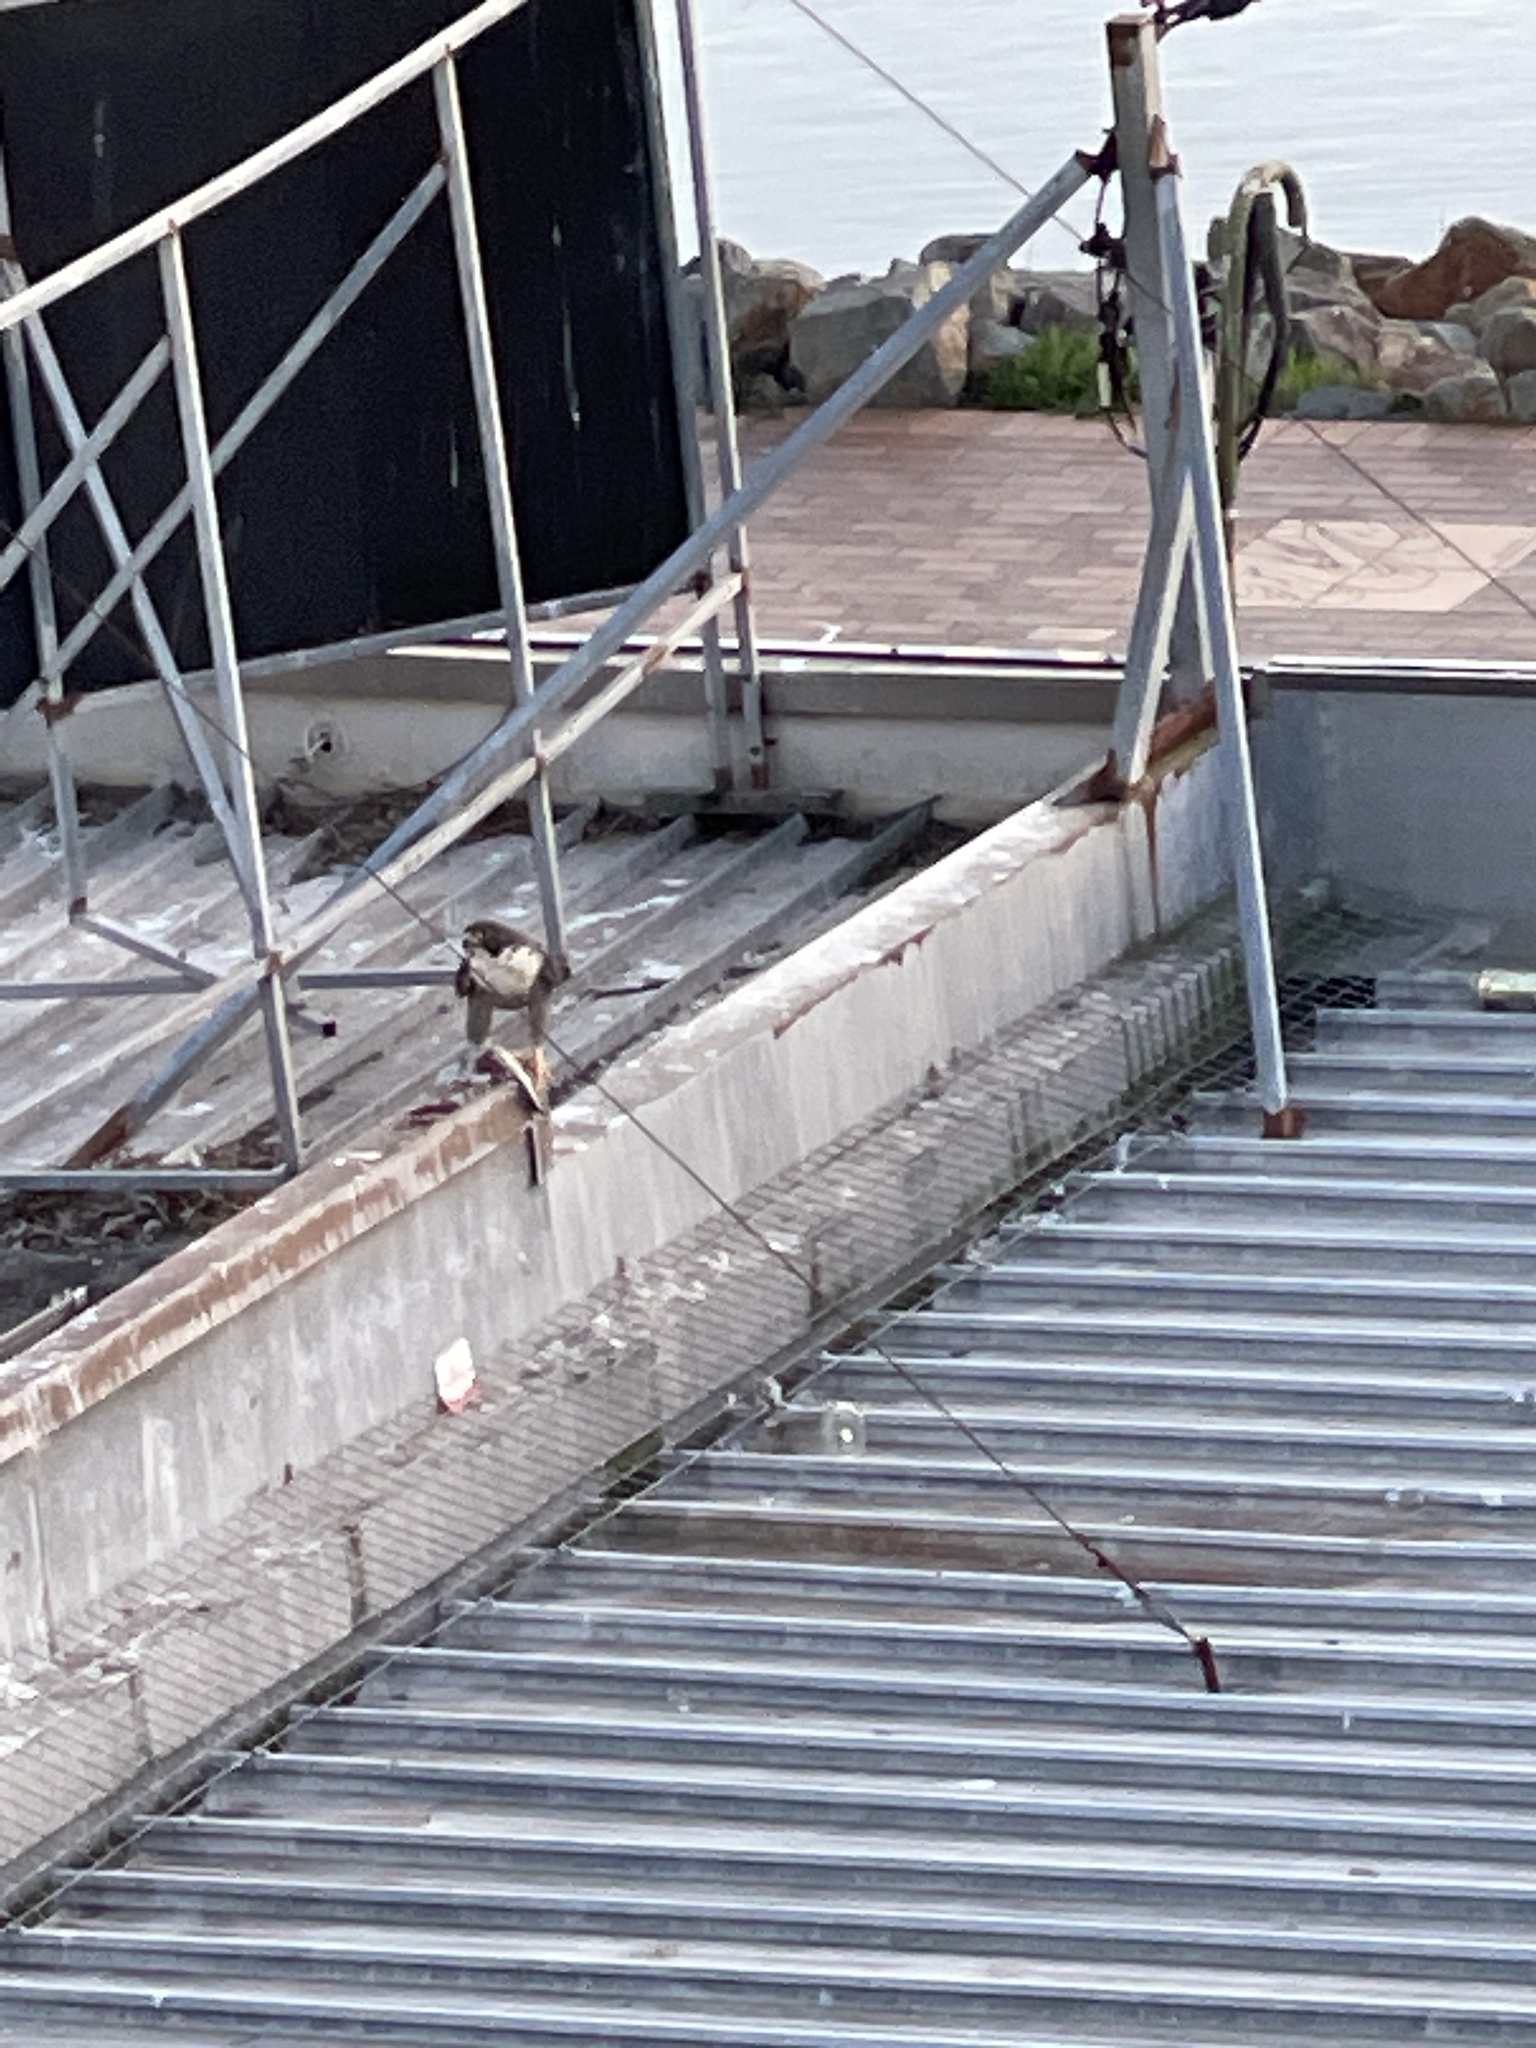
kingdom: Animalia
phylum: Chordata
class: Aves
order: Falconiformes
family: Falconidae
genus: Falco
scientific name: Falco peregrinus
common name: Peregrine falcon
